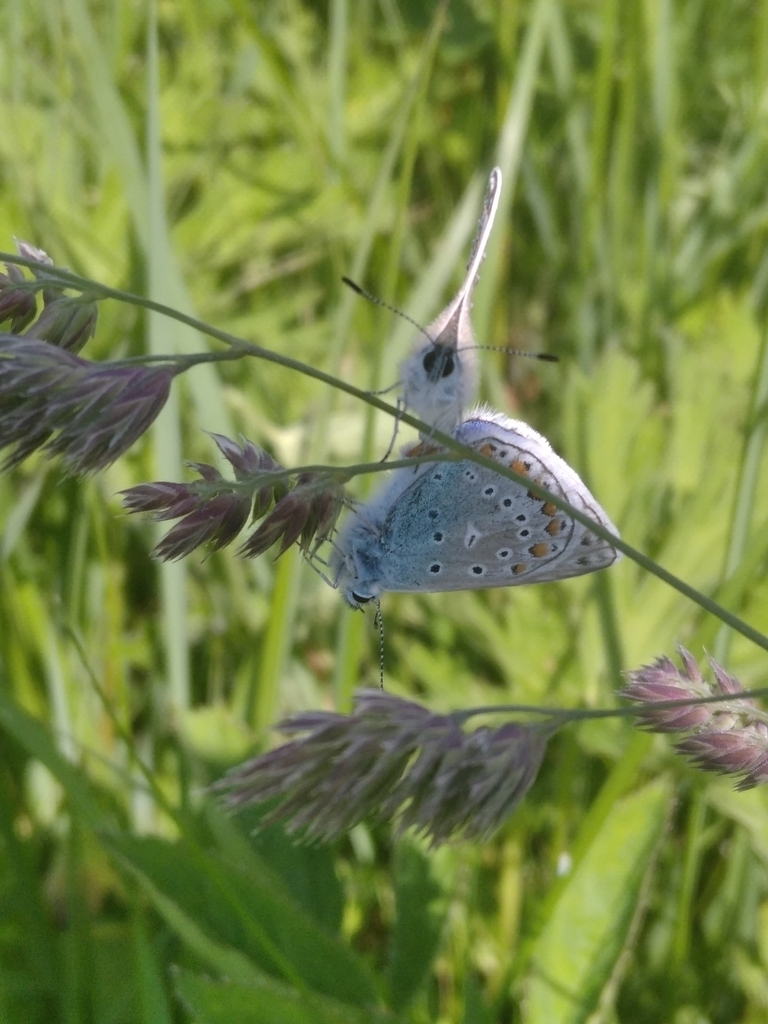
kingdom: Animalia
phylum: Arthropoda
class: Insecta
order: Lepidoptera
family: Lycaenidae
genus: Polyommatus
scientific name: Polyommatus
